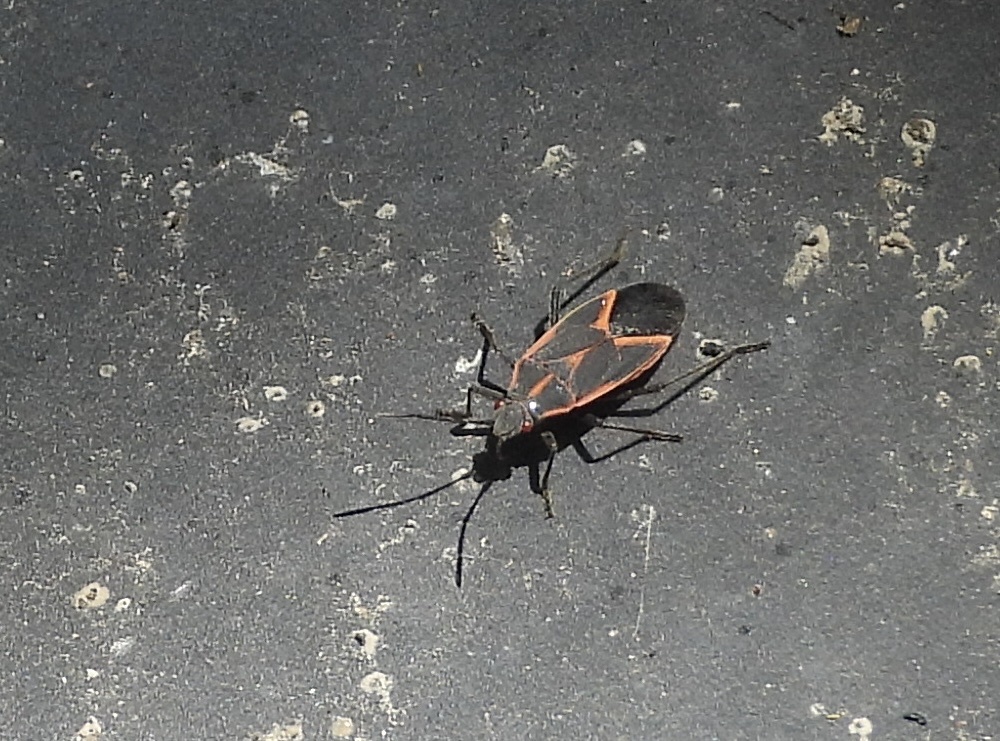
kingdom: Animalia
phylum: Arthropoda
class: Insecta
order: Hemiptera
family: Rhopalidae
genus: Boisea
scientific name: Boisea trivittata
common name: Boxelder bug
